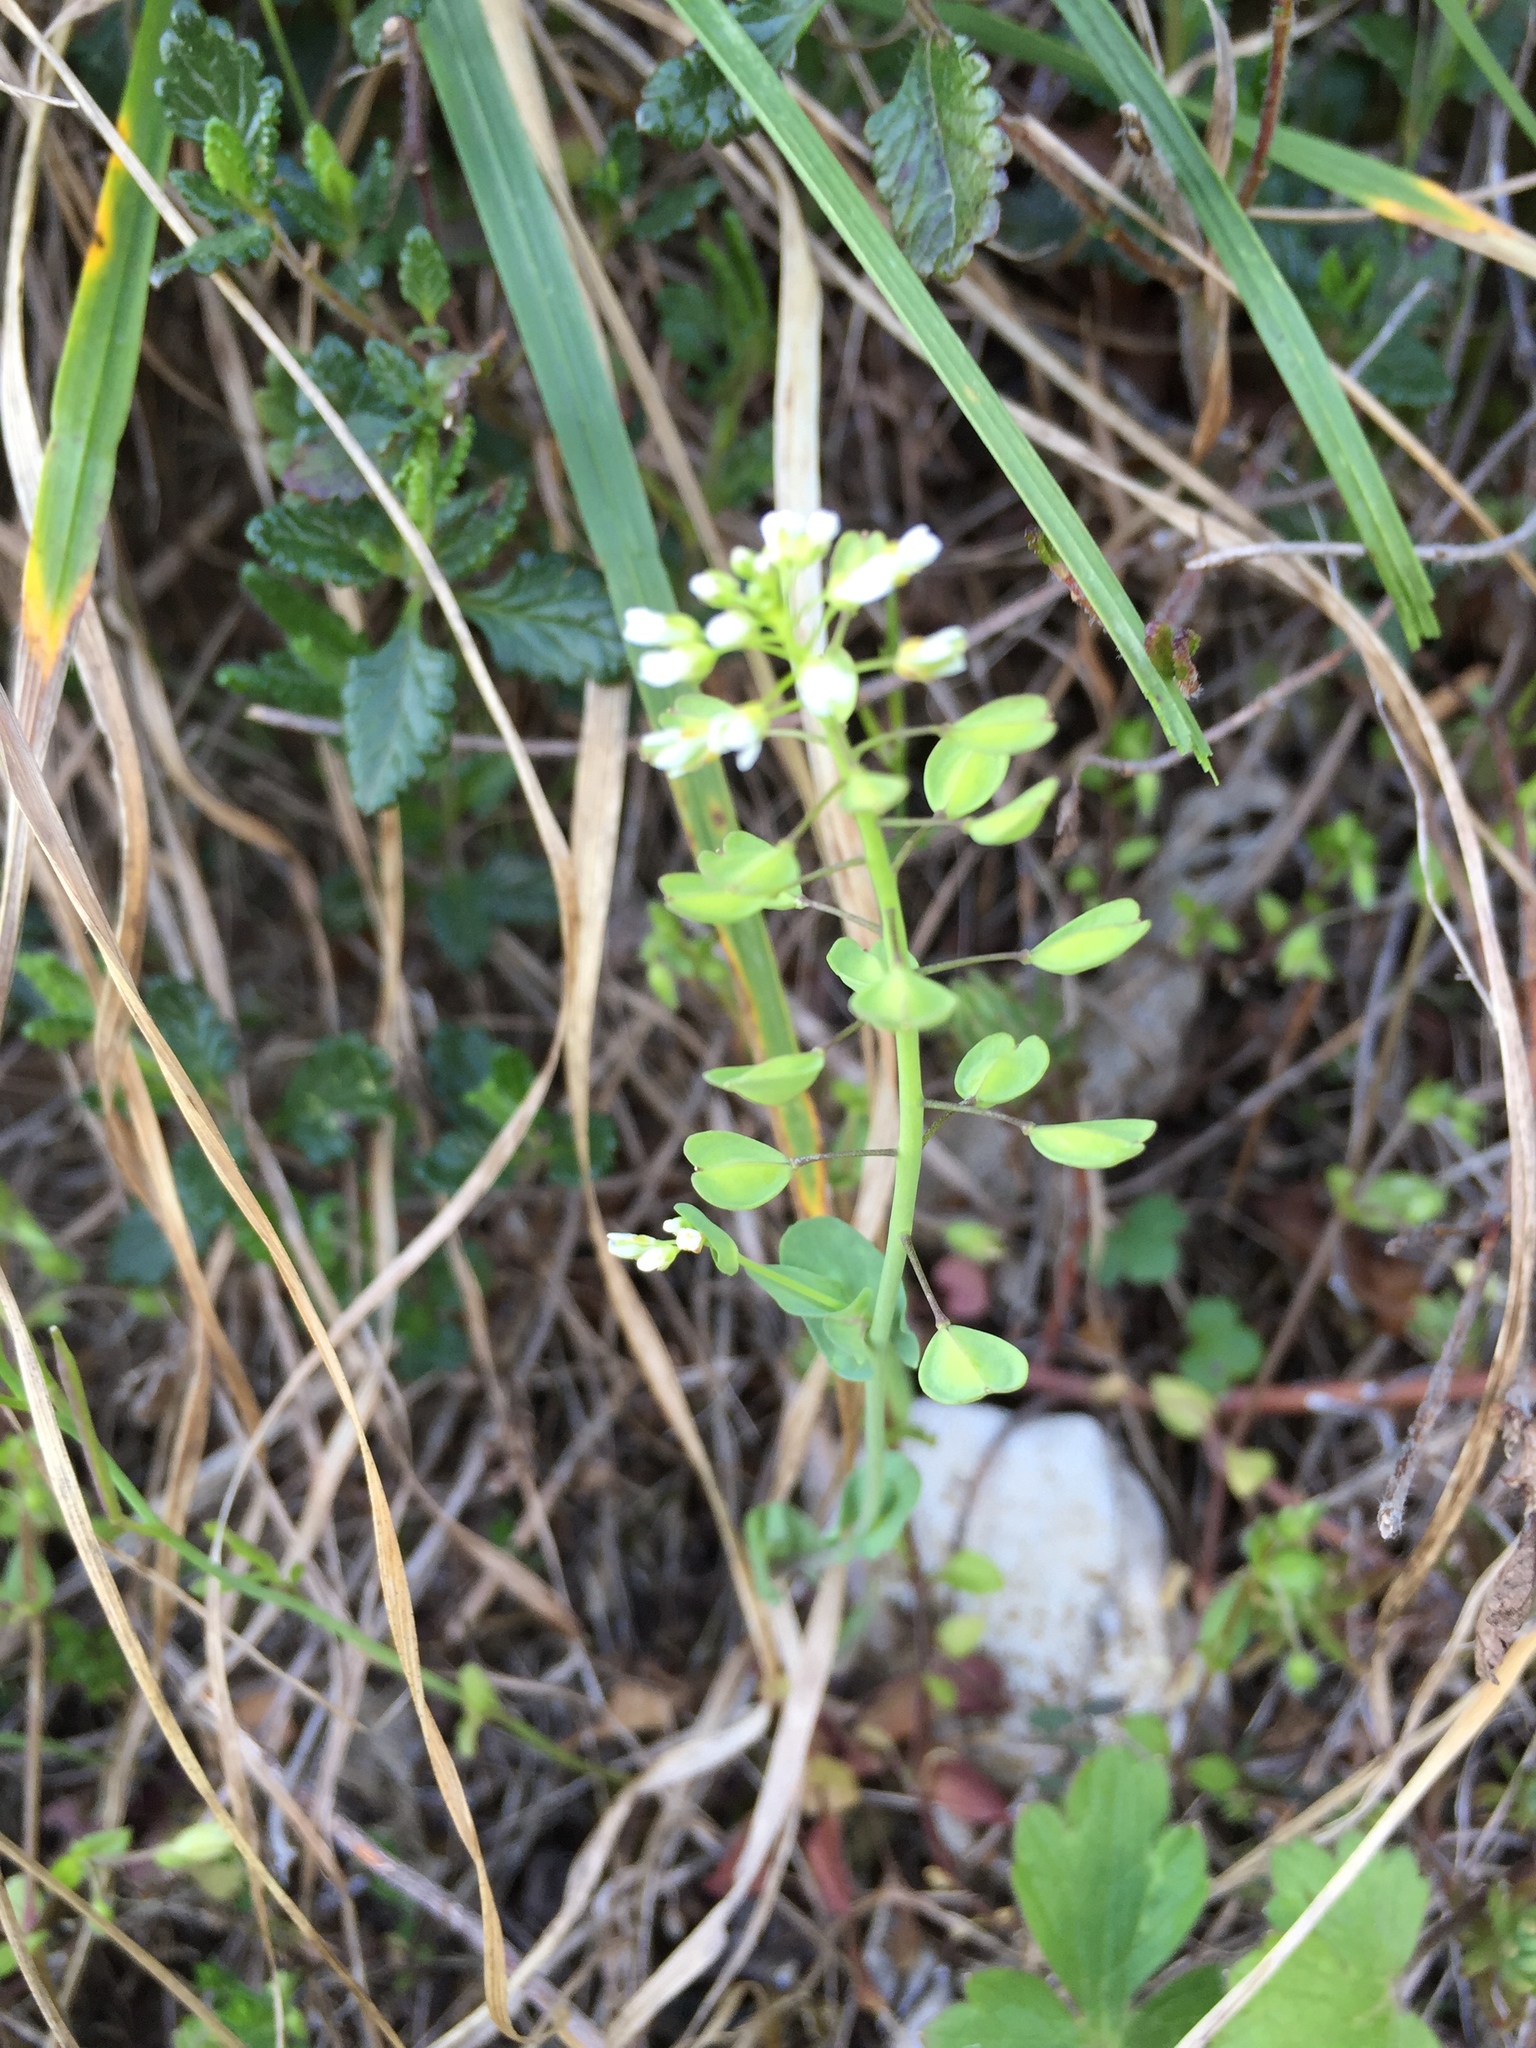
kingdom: Plantae
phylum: Tracheophyta
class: Magnoliopsida
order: Brassicales
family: Brassicaceae
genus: Noccaea
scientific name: Noccaea perfoliata
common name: Perfoliate pennycress
